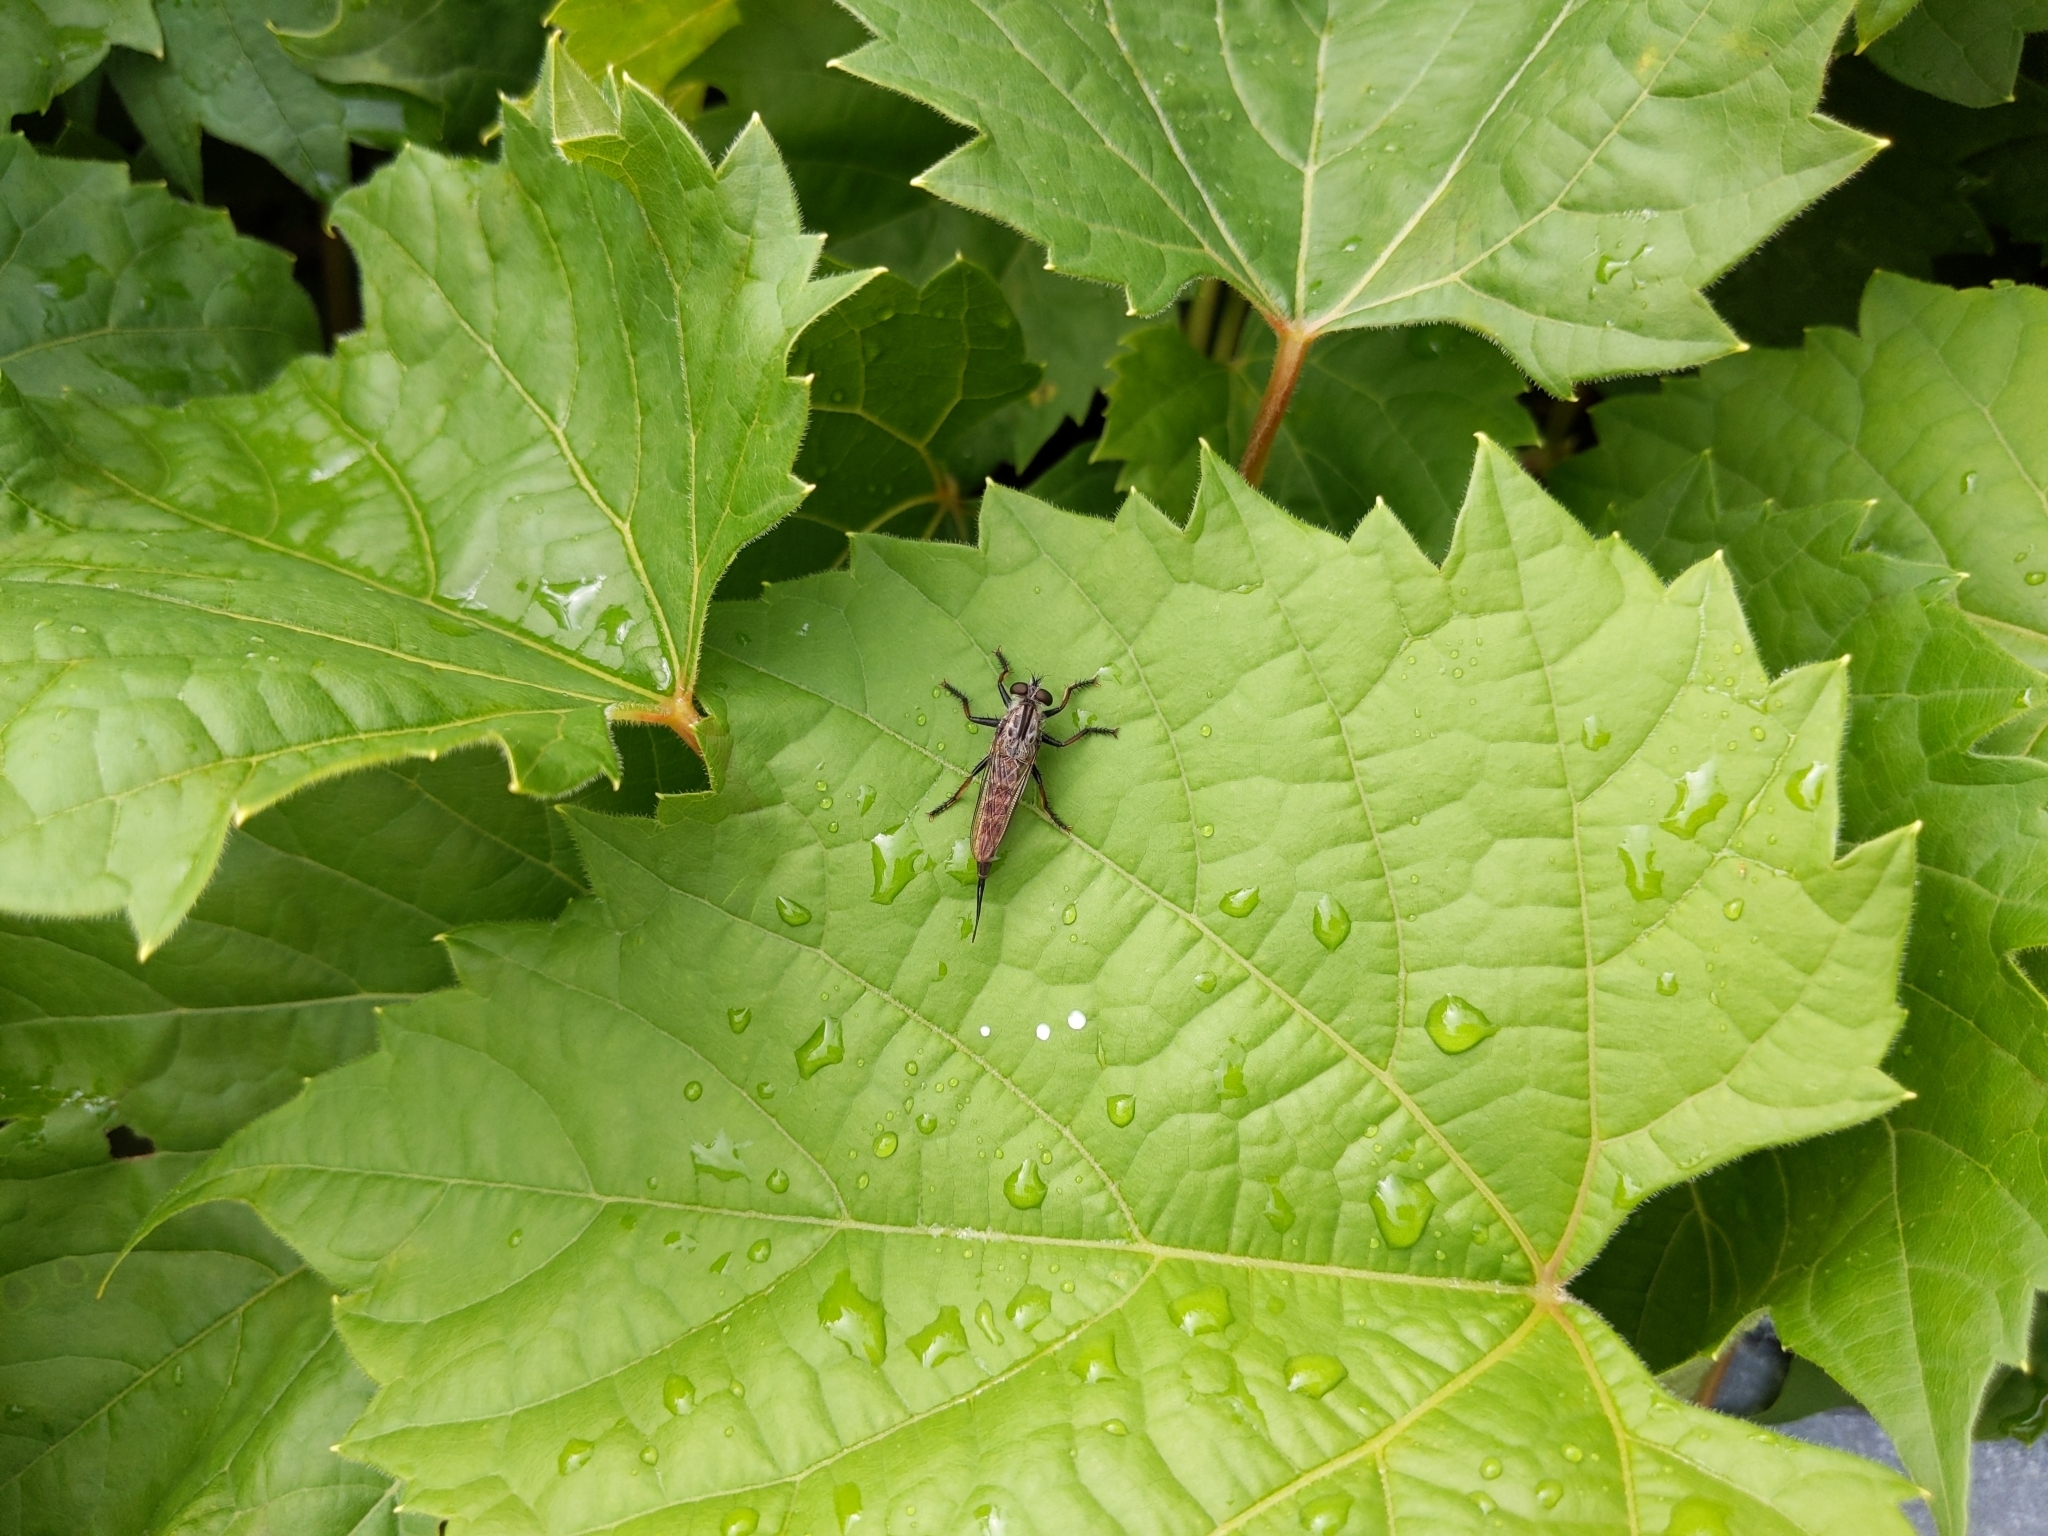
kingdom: Animalia
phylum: Arthropoda
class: Insecta
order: Diptera
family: Asilidae
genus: Efferia
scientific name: Efferia aestuans
